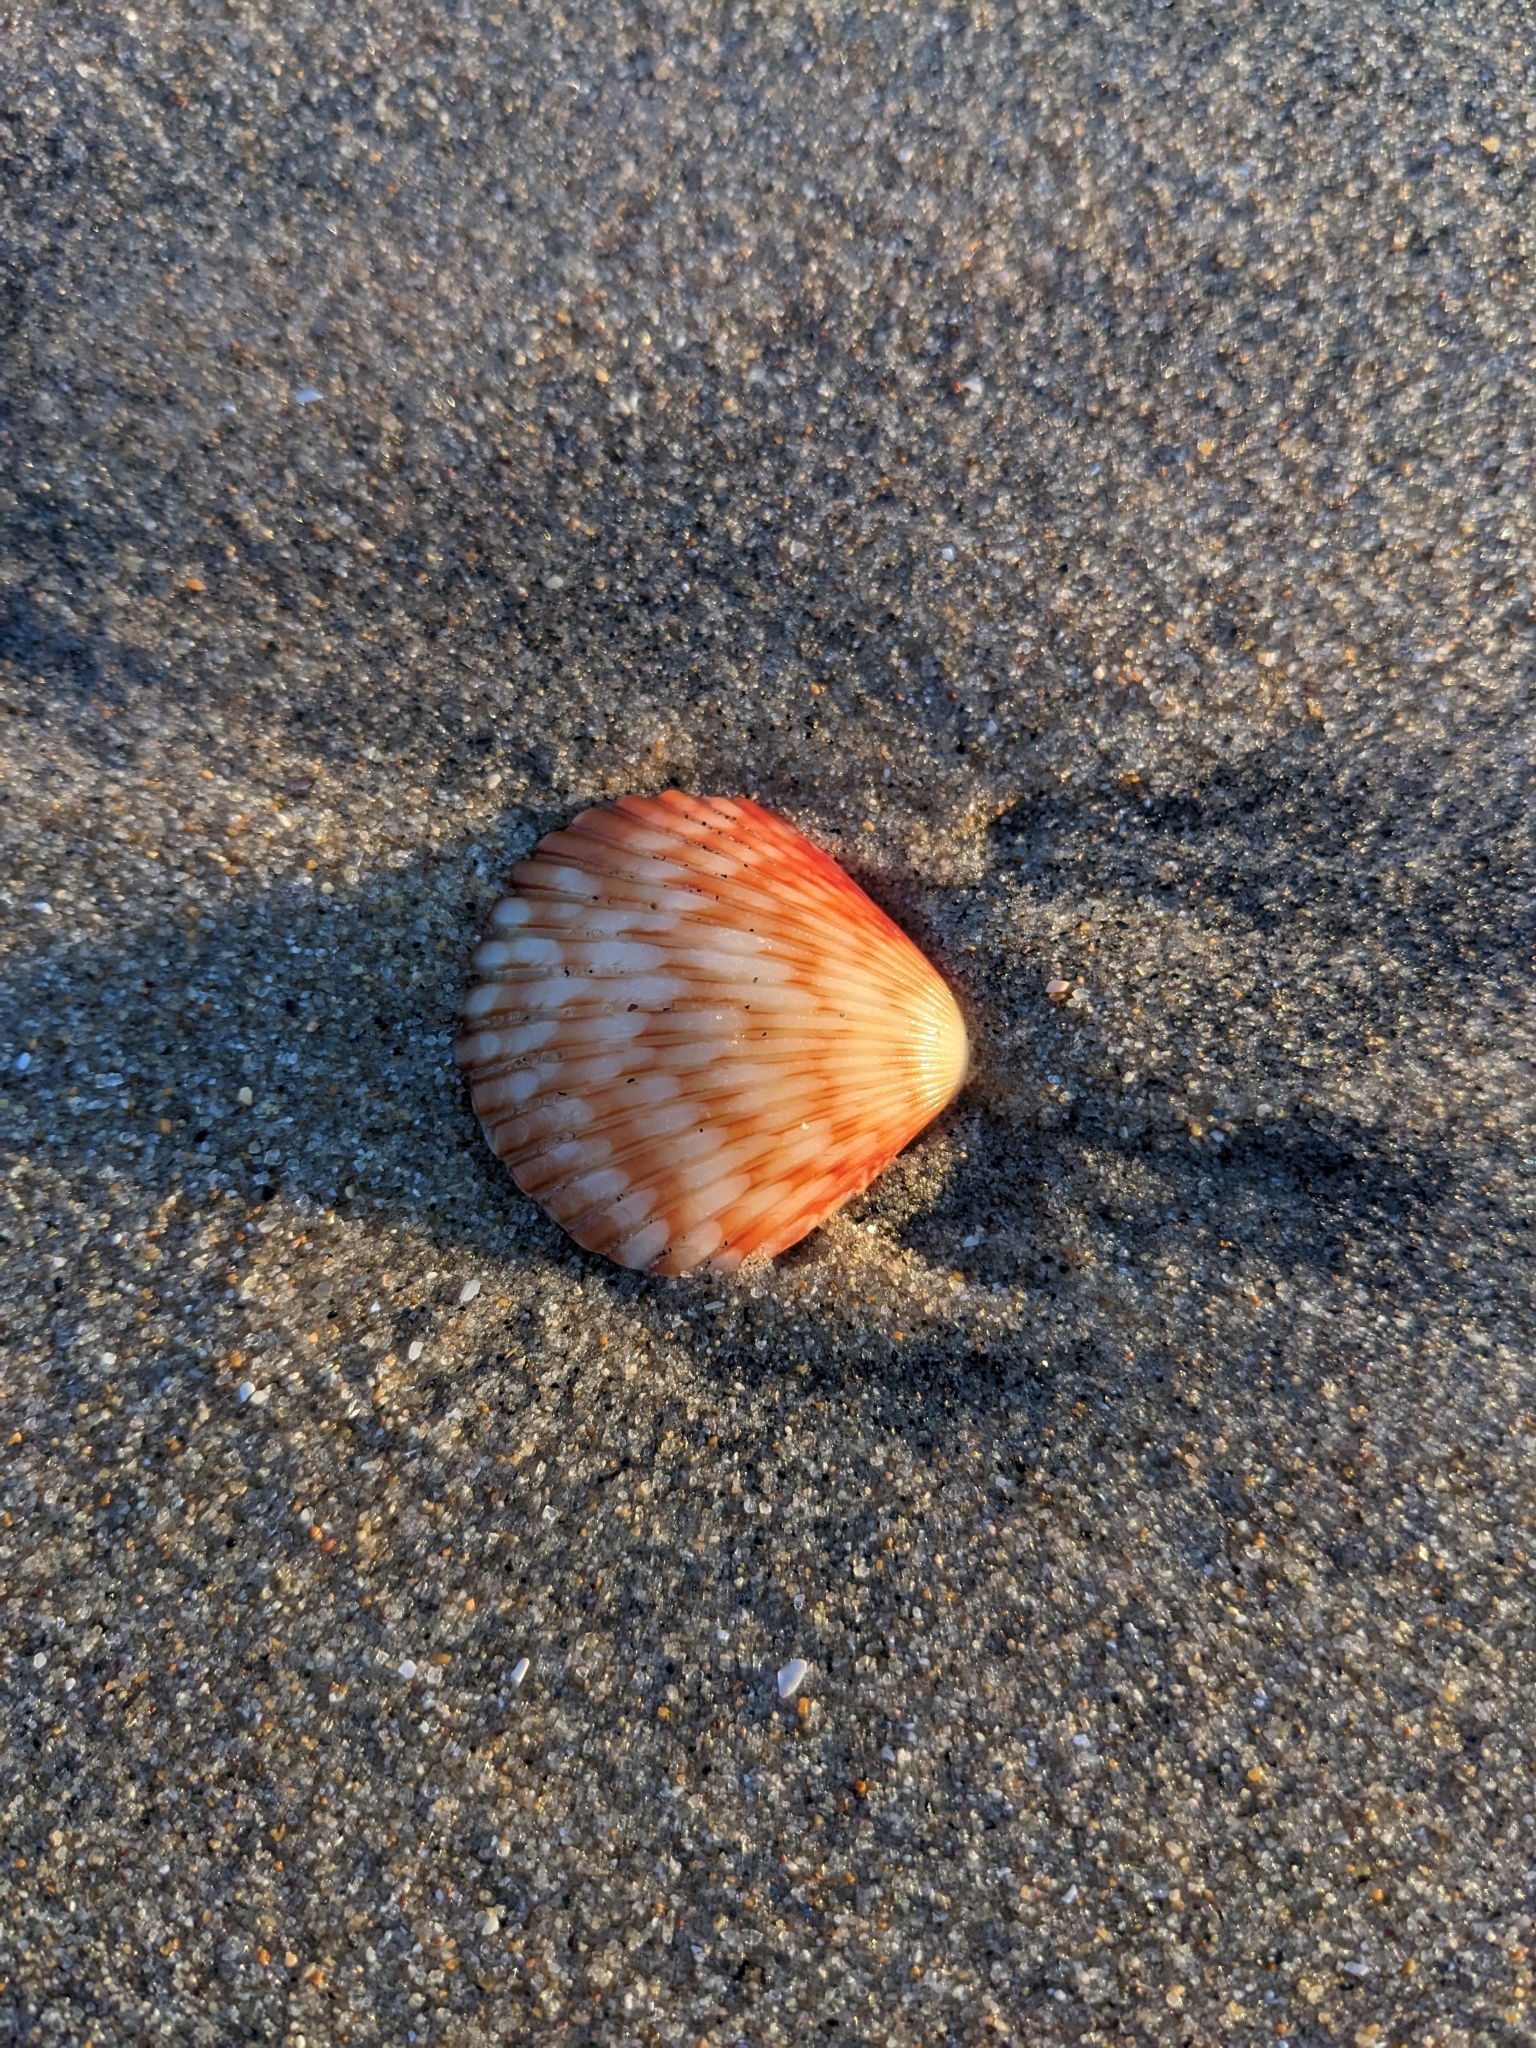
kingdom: Animalia
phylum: Mollusca
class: Bivalvia
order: Pectinida
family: Pectinidae
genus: Argopecten
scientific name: Argopecten ventricosus
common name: Catarina scallop
